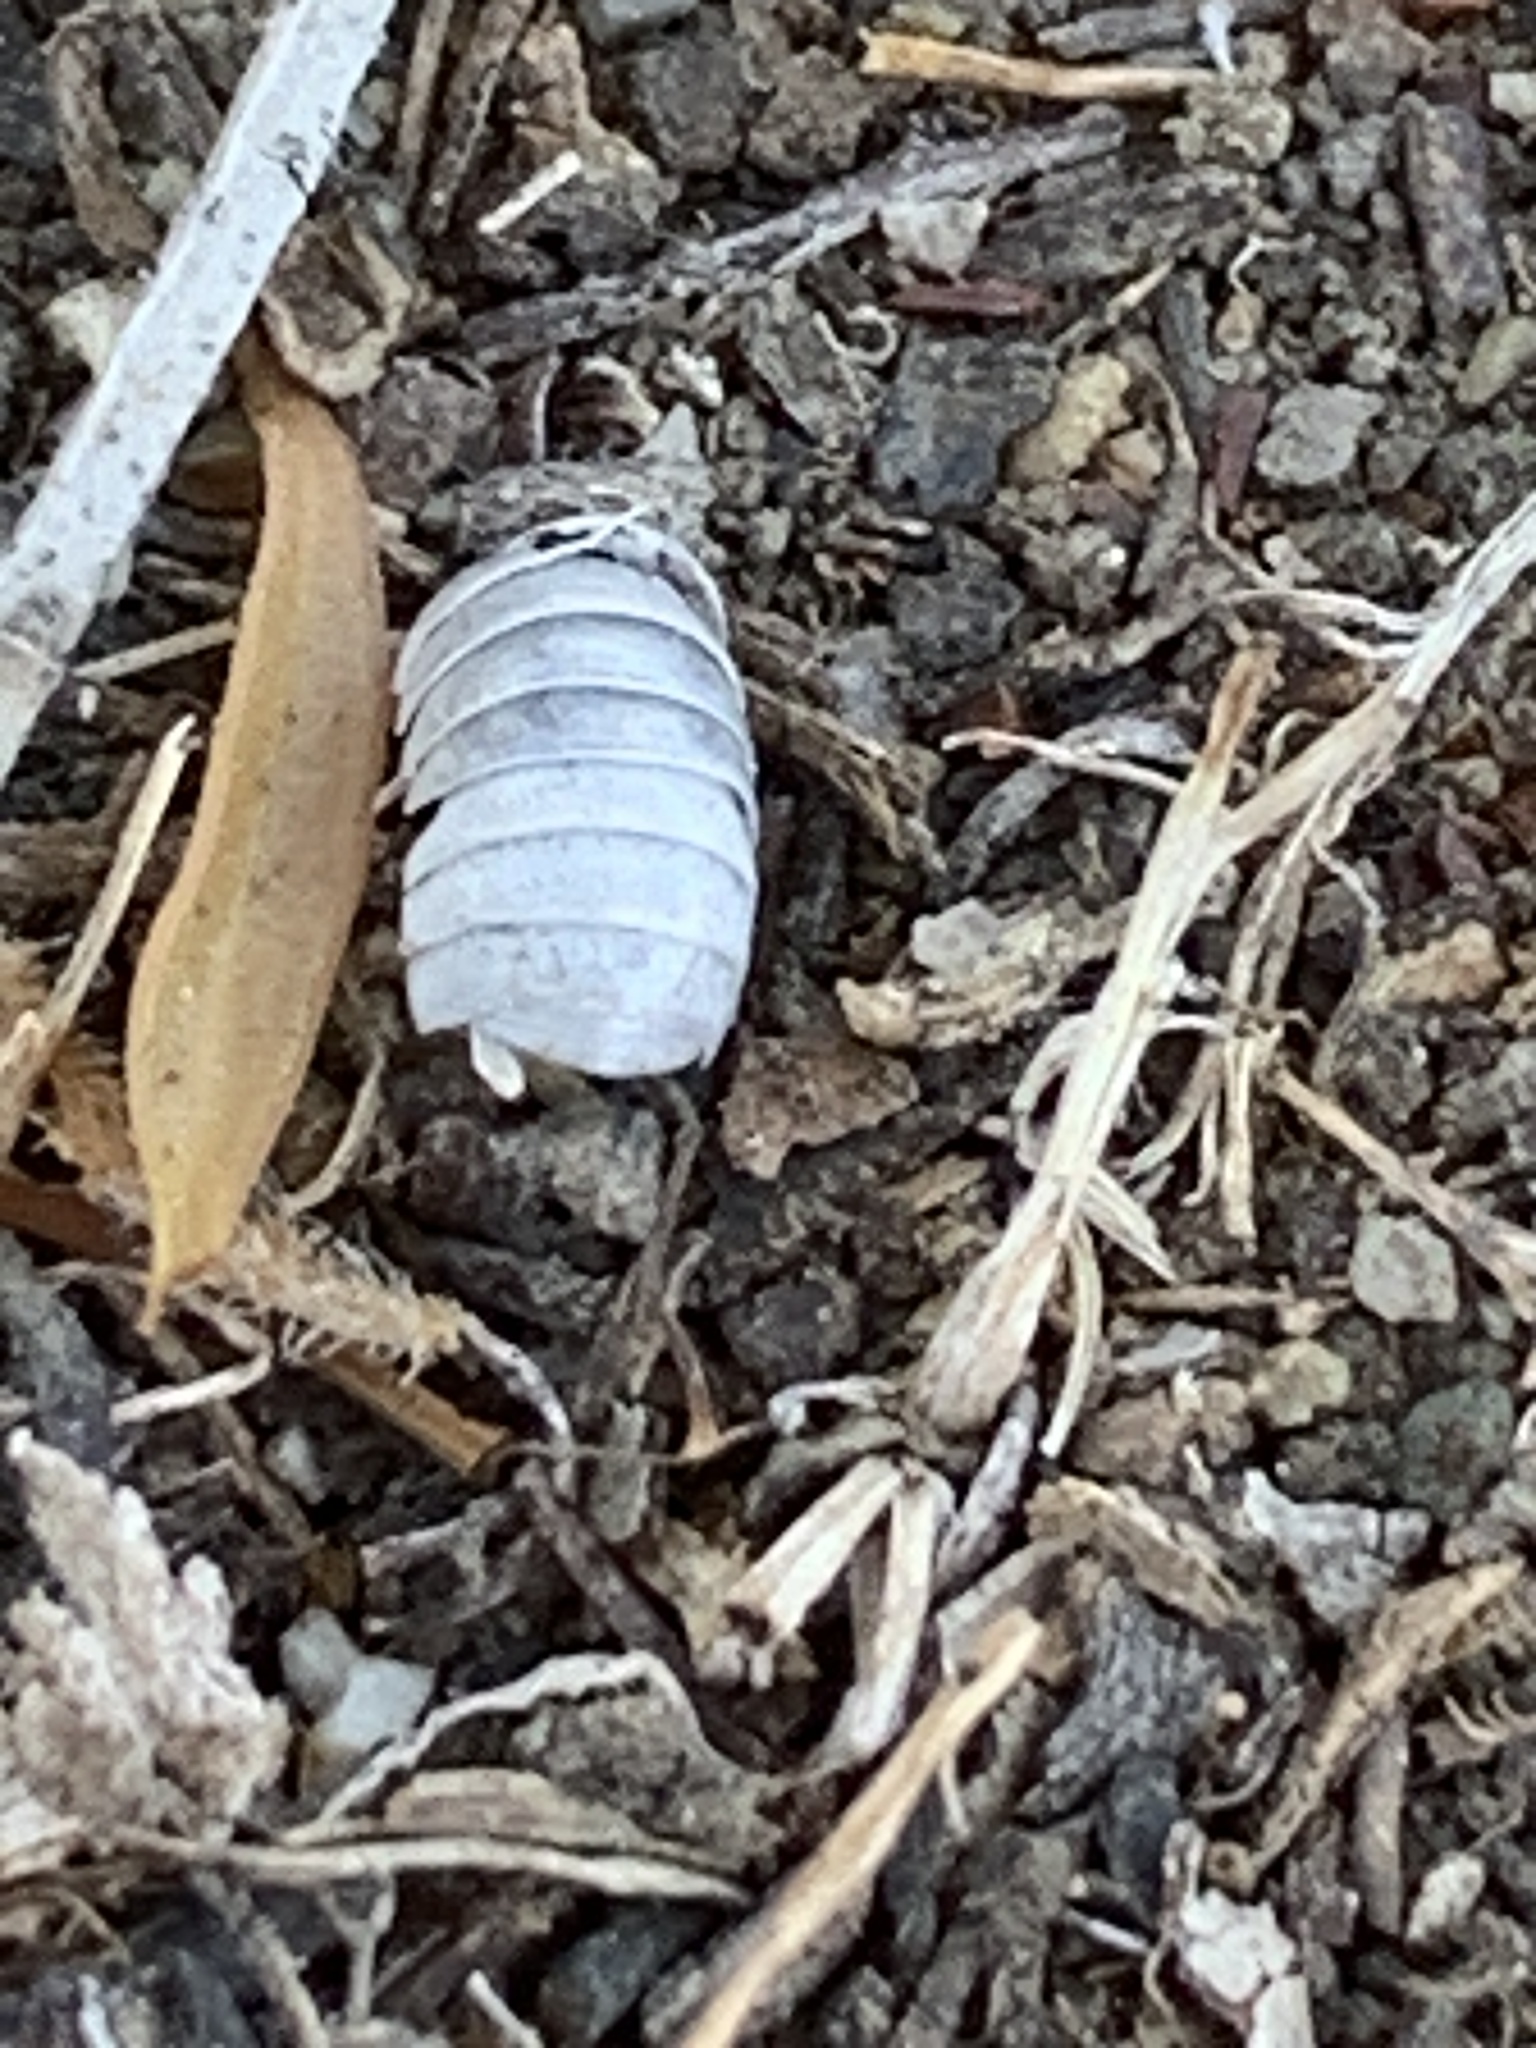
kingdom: Animalia
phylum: Arthropoda
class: Malacostraca
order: Isopoda
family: Armadillidiidae
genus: Armadillidium
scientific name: Armadillidium vulgare
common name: Common pill woodlouse
